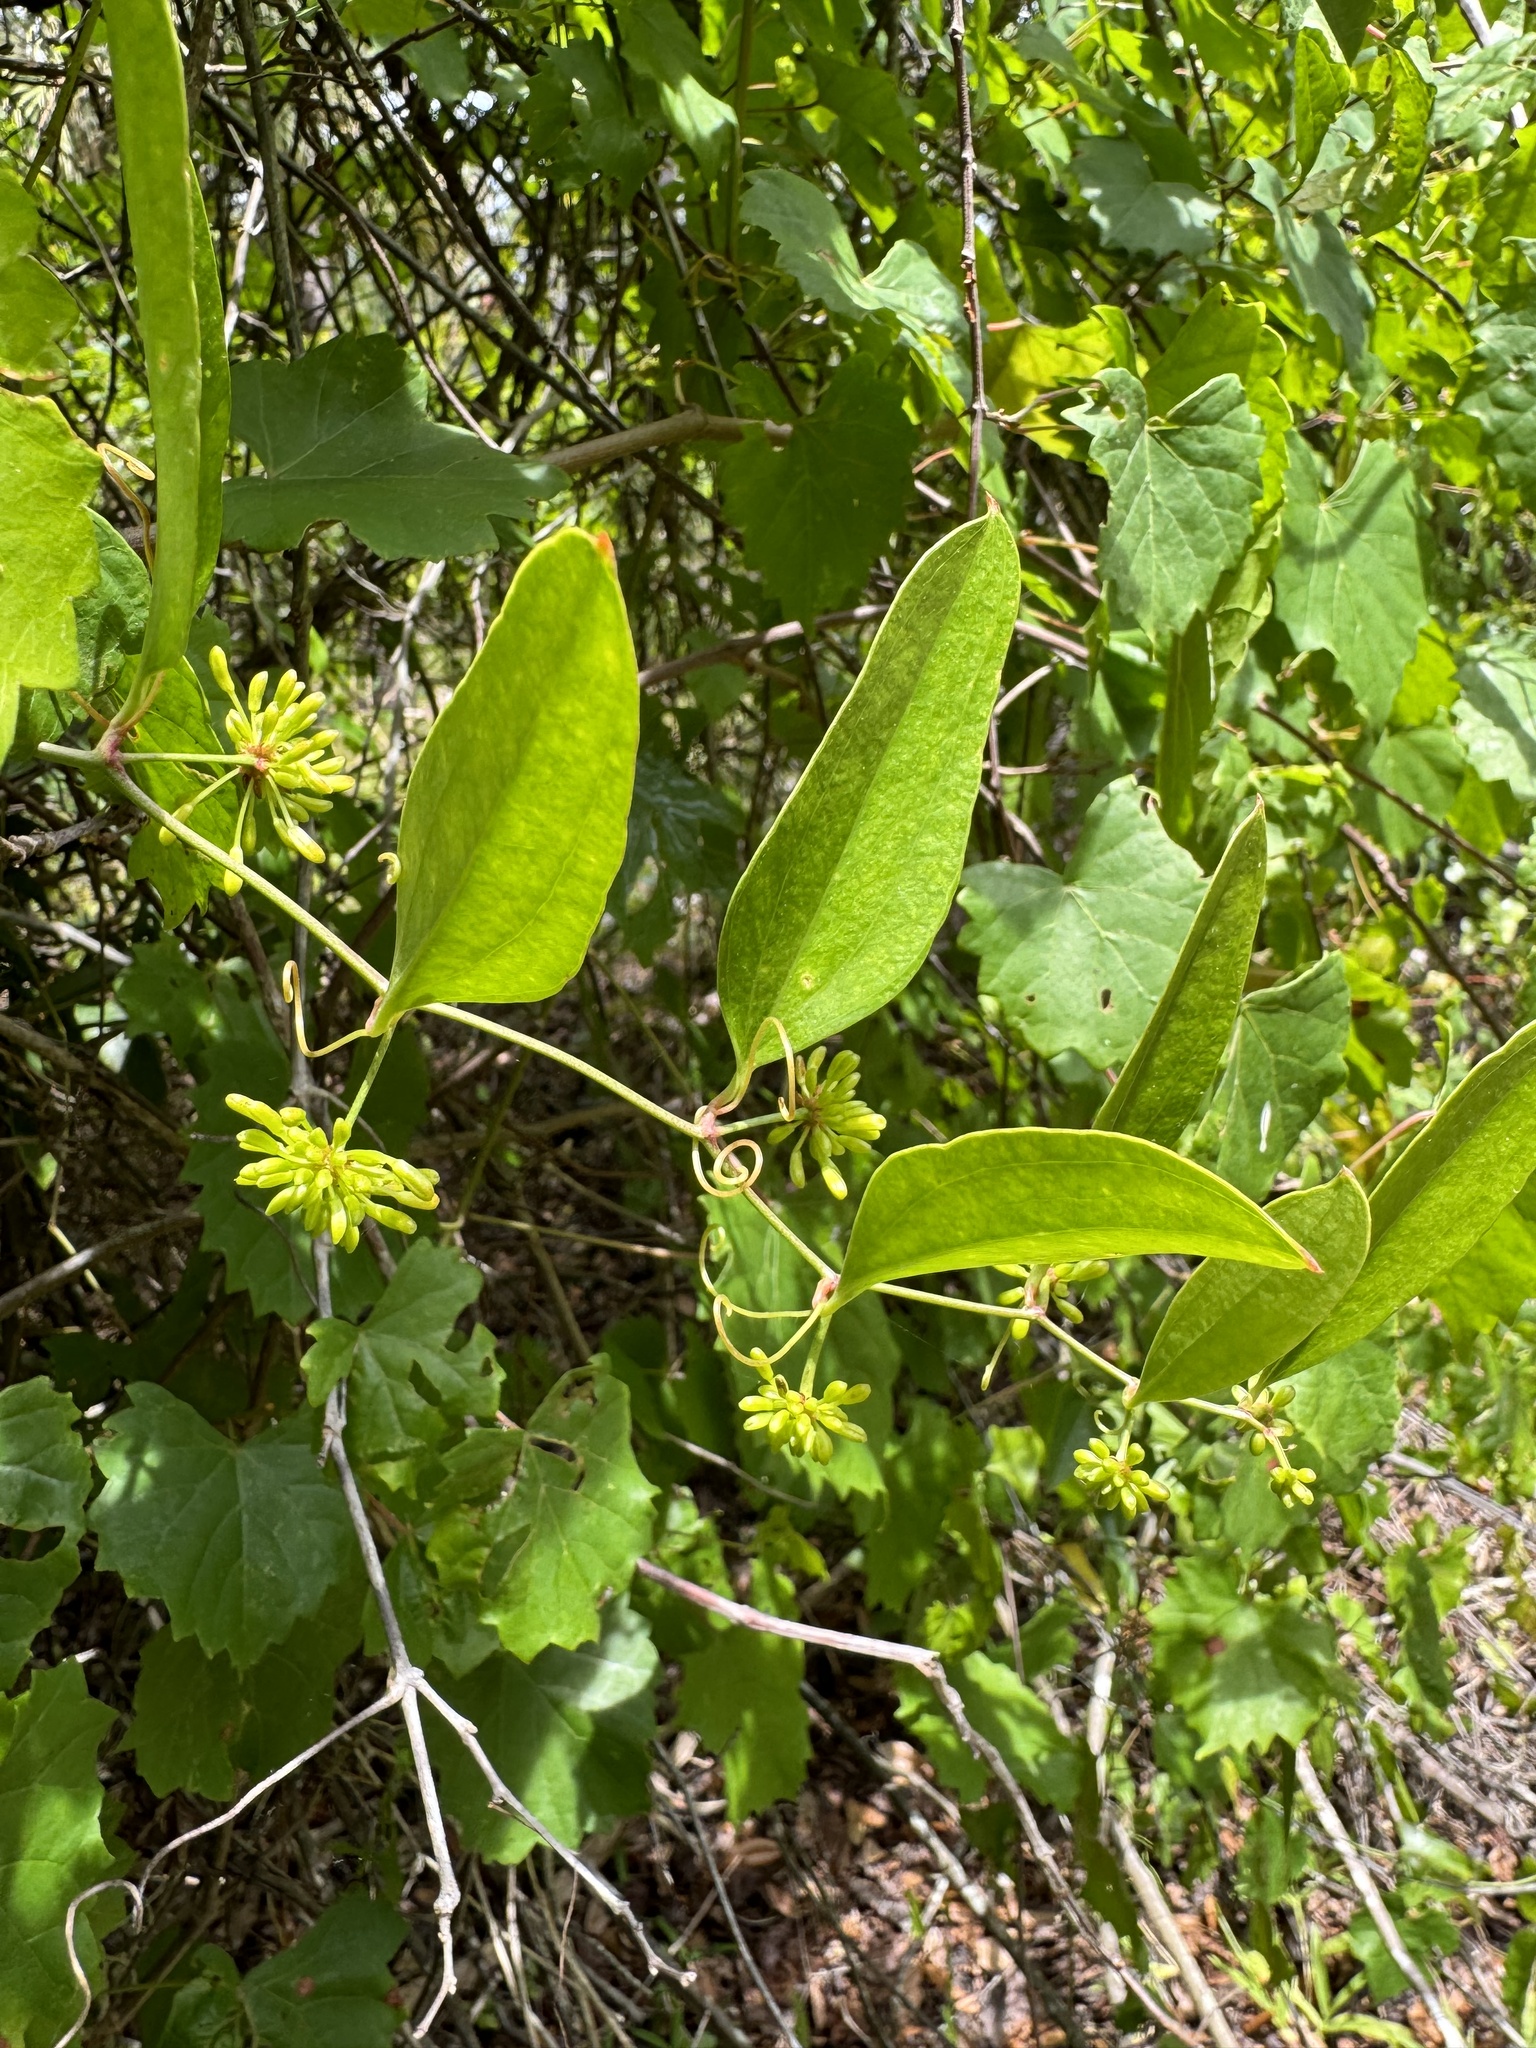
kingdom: Plantae
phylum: Tracheophyta
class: Liliopsida
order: Liliales
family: Smilacaceae
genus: Smilax
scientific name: Smilax auriculata
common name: Wild bamboo
